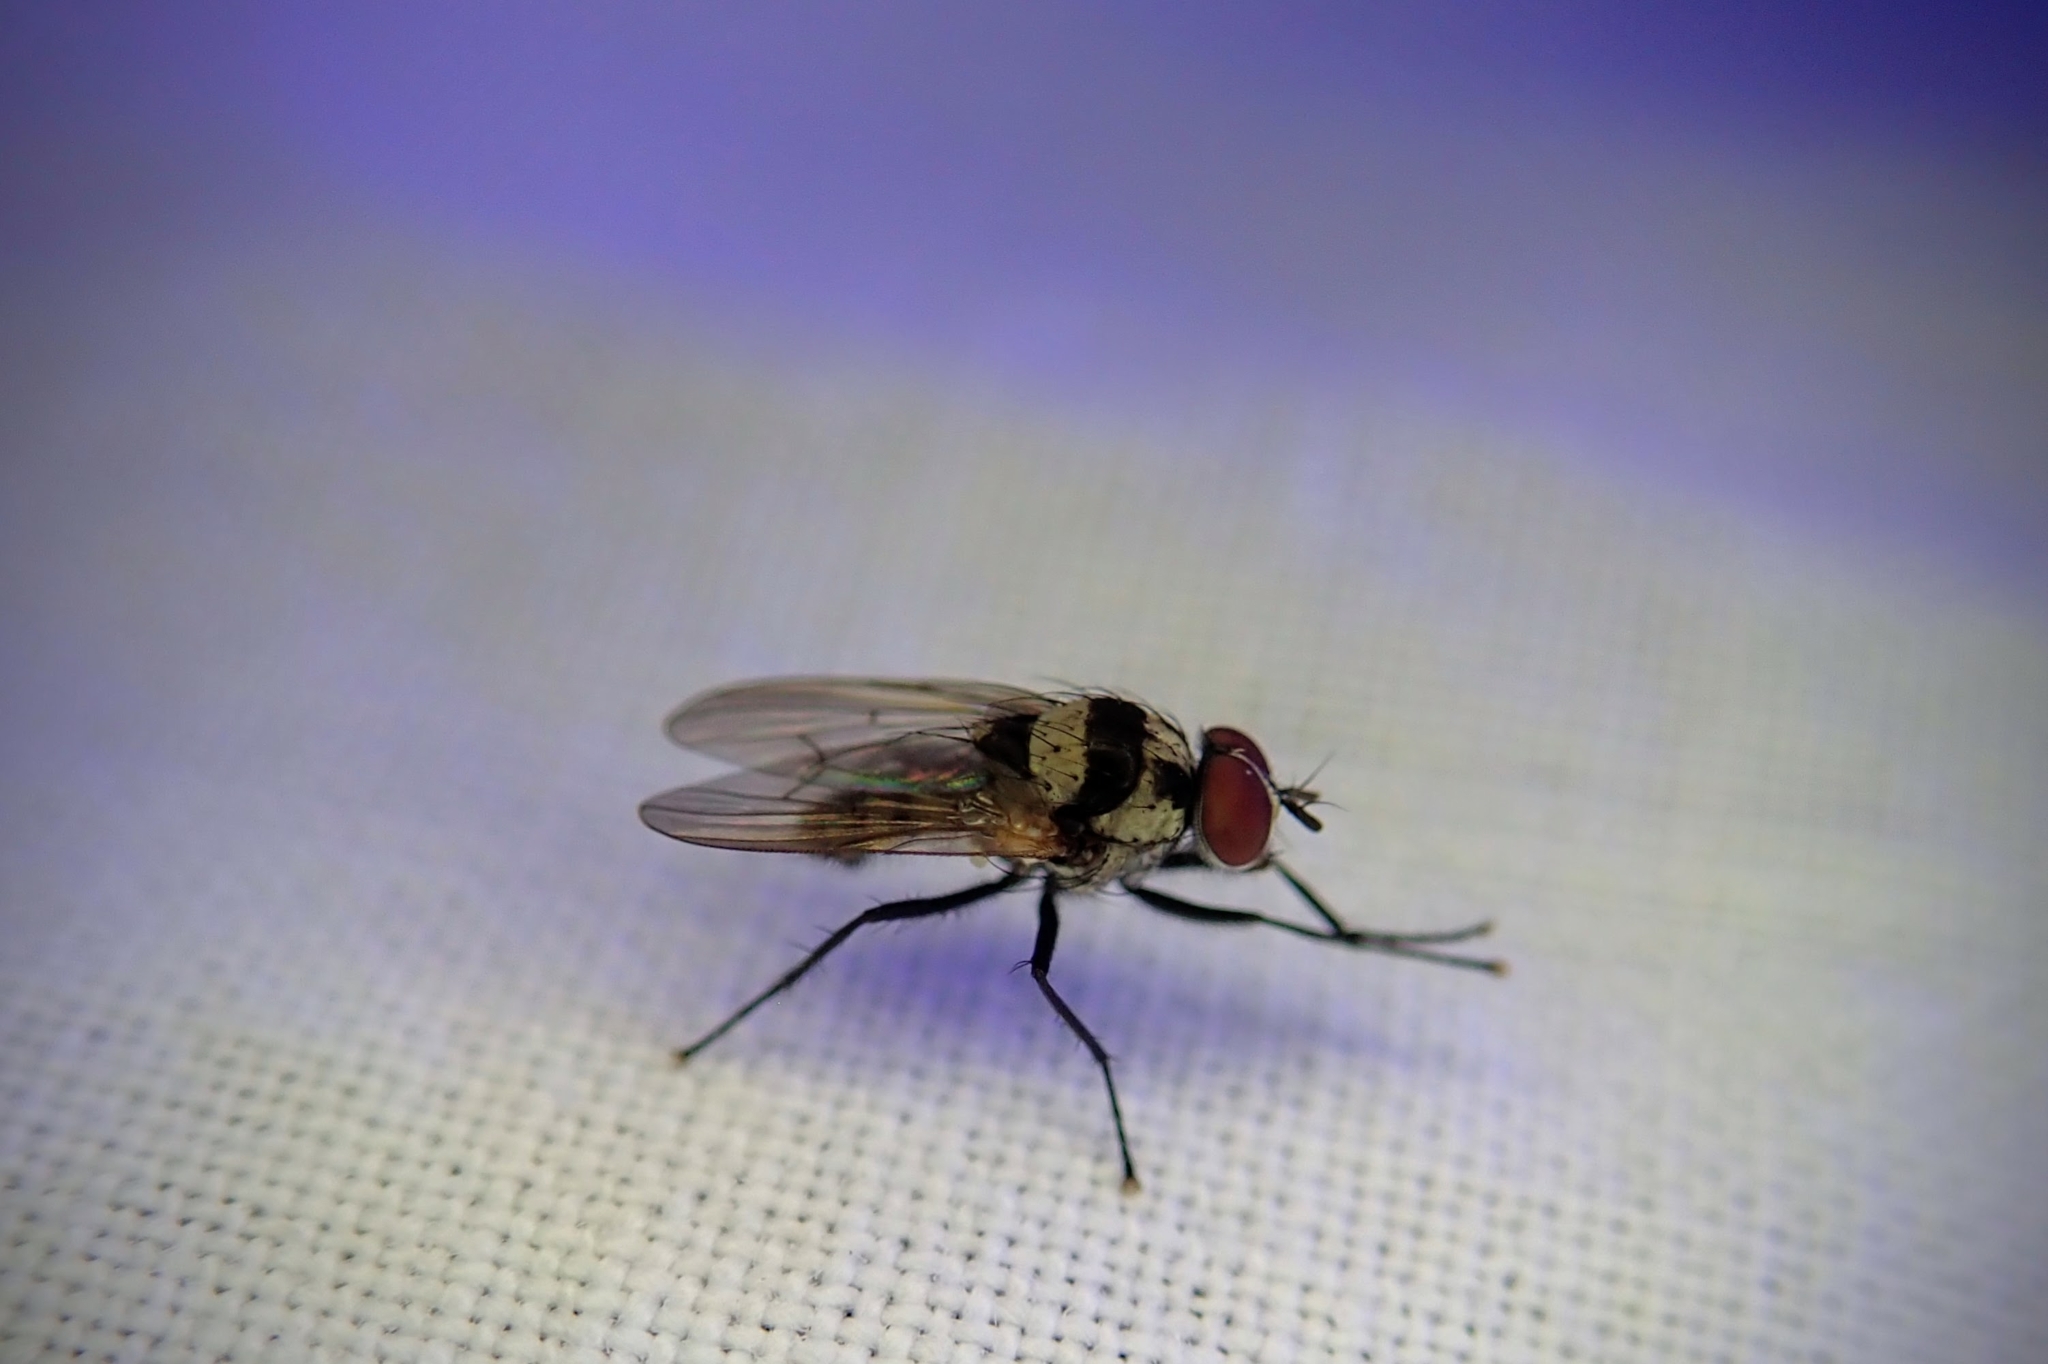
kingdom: Animalia
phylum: Arthropoda
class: Insecta
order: Diptera
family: Anthomyiidae
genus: Anthomyia
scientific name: Anthomyia oculifera
